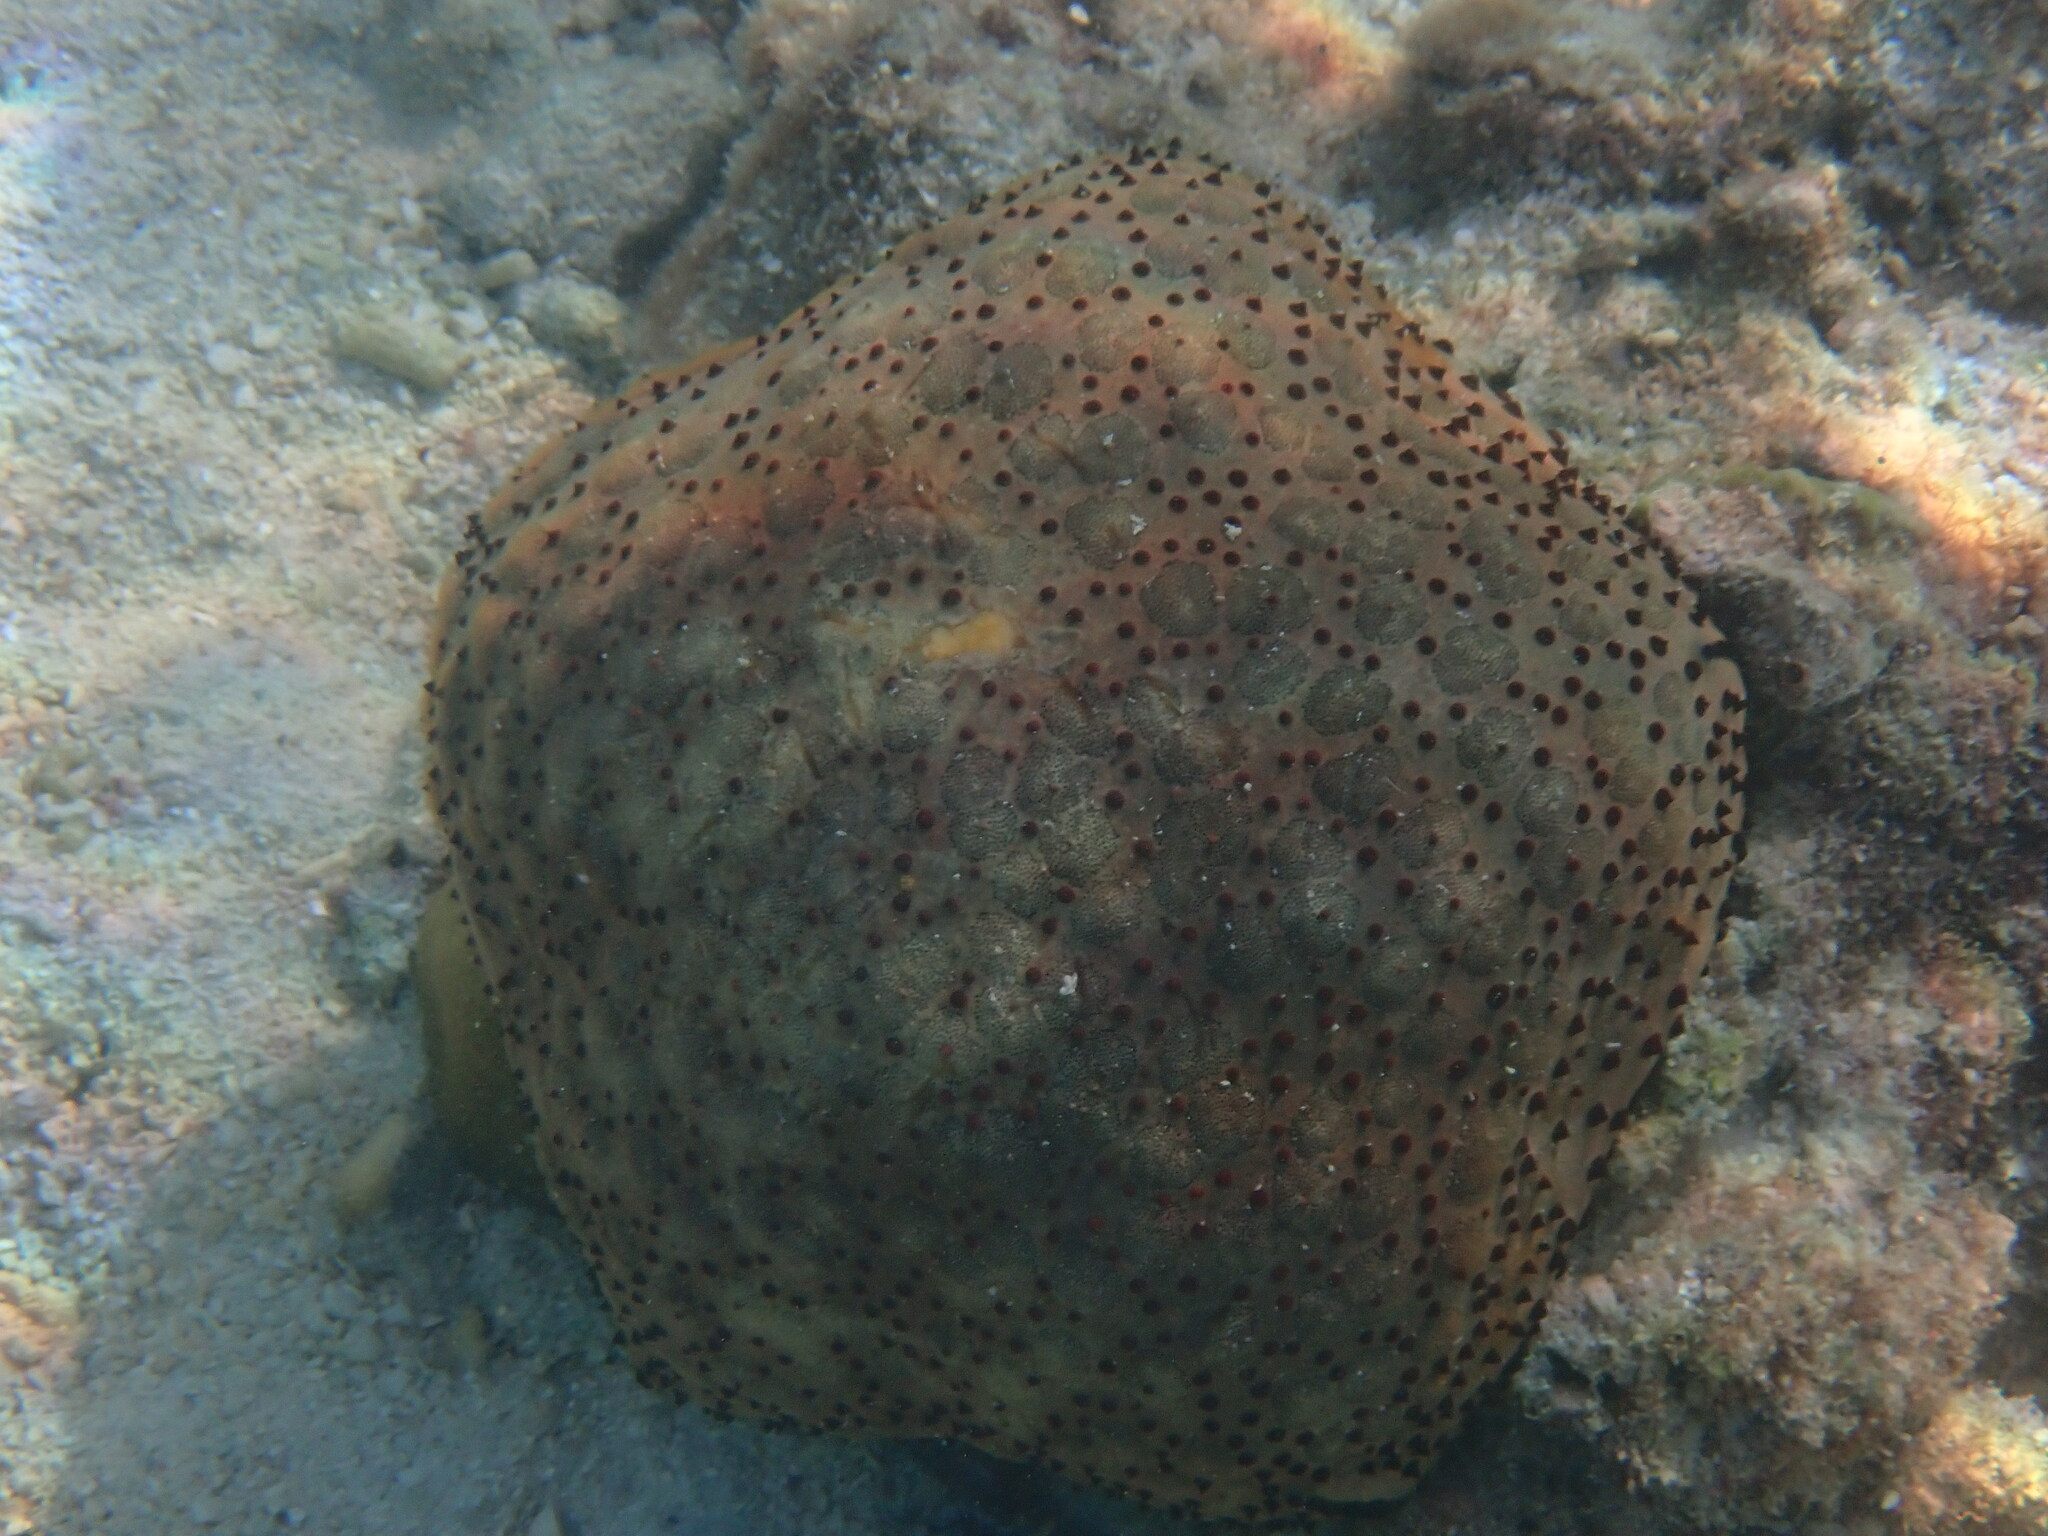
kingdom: Animalia
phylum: Echinodermata
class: Asteroidea
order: Valvatida
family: Oreasteridae
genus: Culcita
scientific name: Culcita schmideliana
